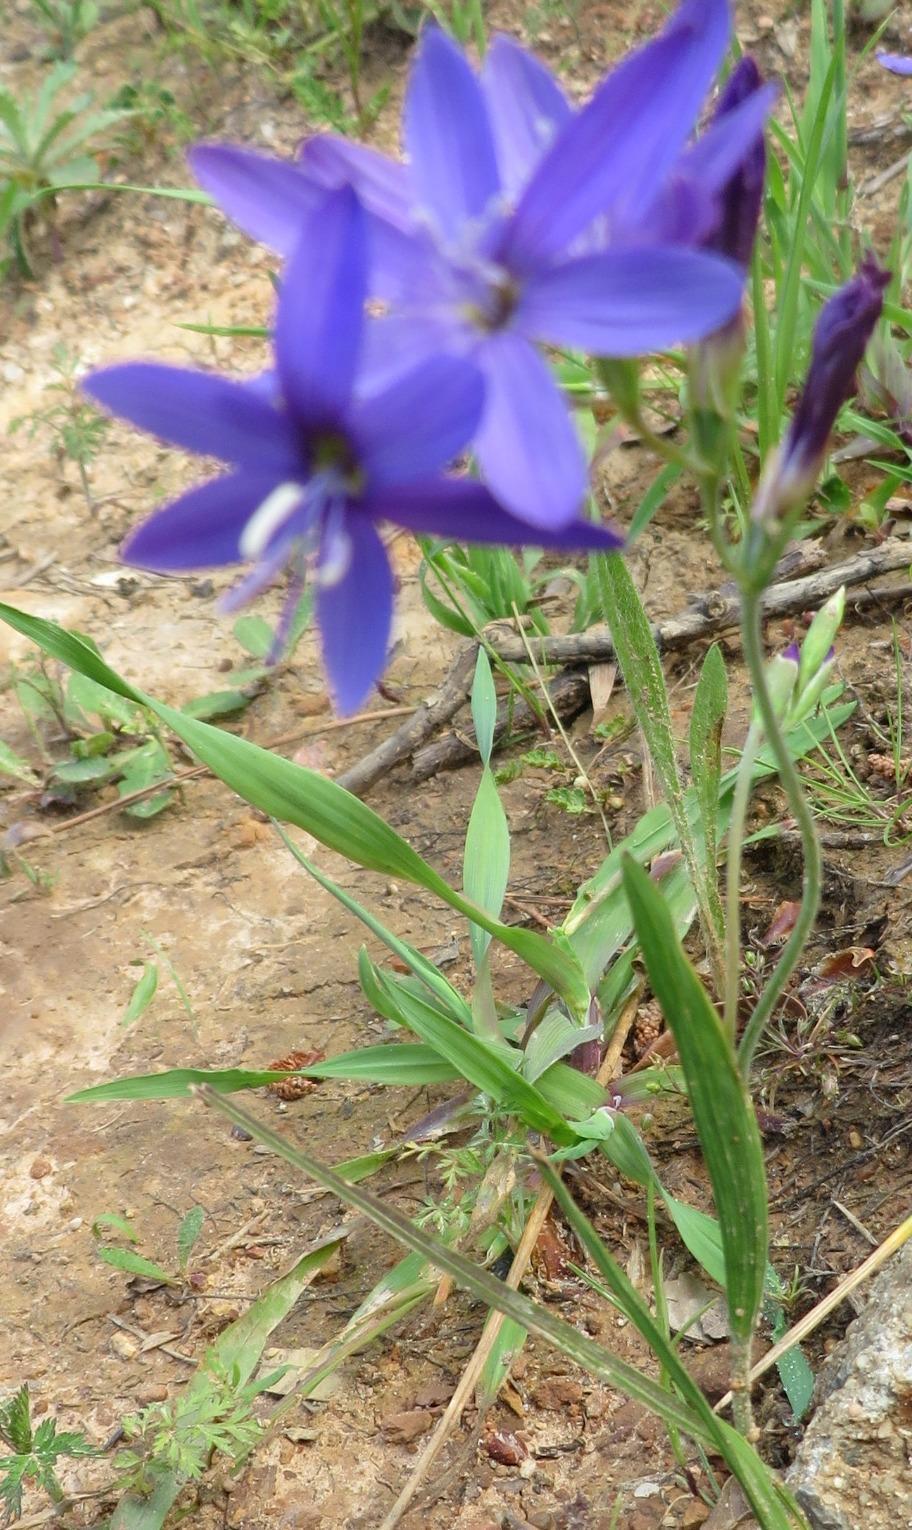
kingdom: Plantae
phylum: Tracheophyta
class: Liliopsida
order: Asparagales
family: Iridaceae
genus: Geissorhiza
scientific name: Geissorhiza aspera
